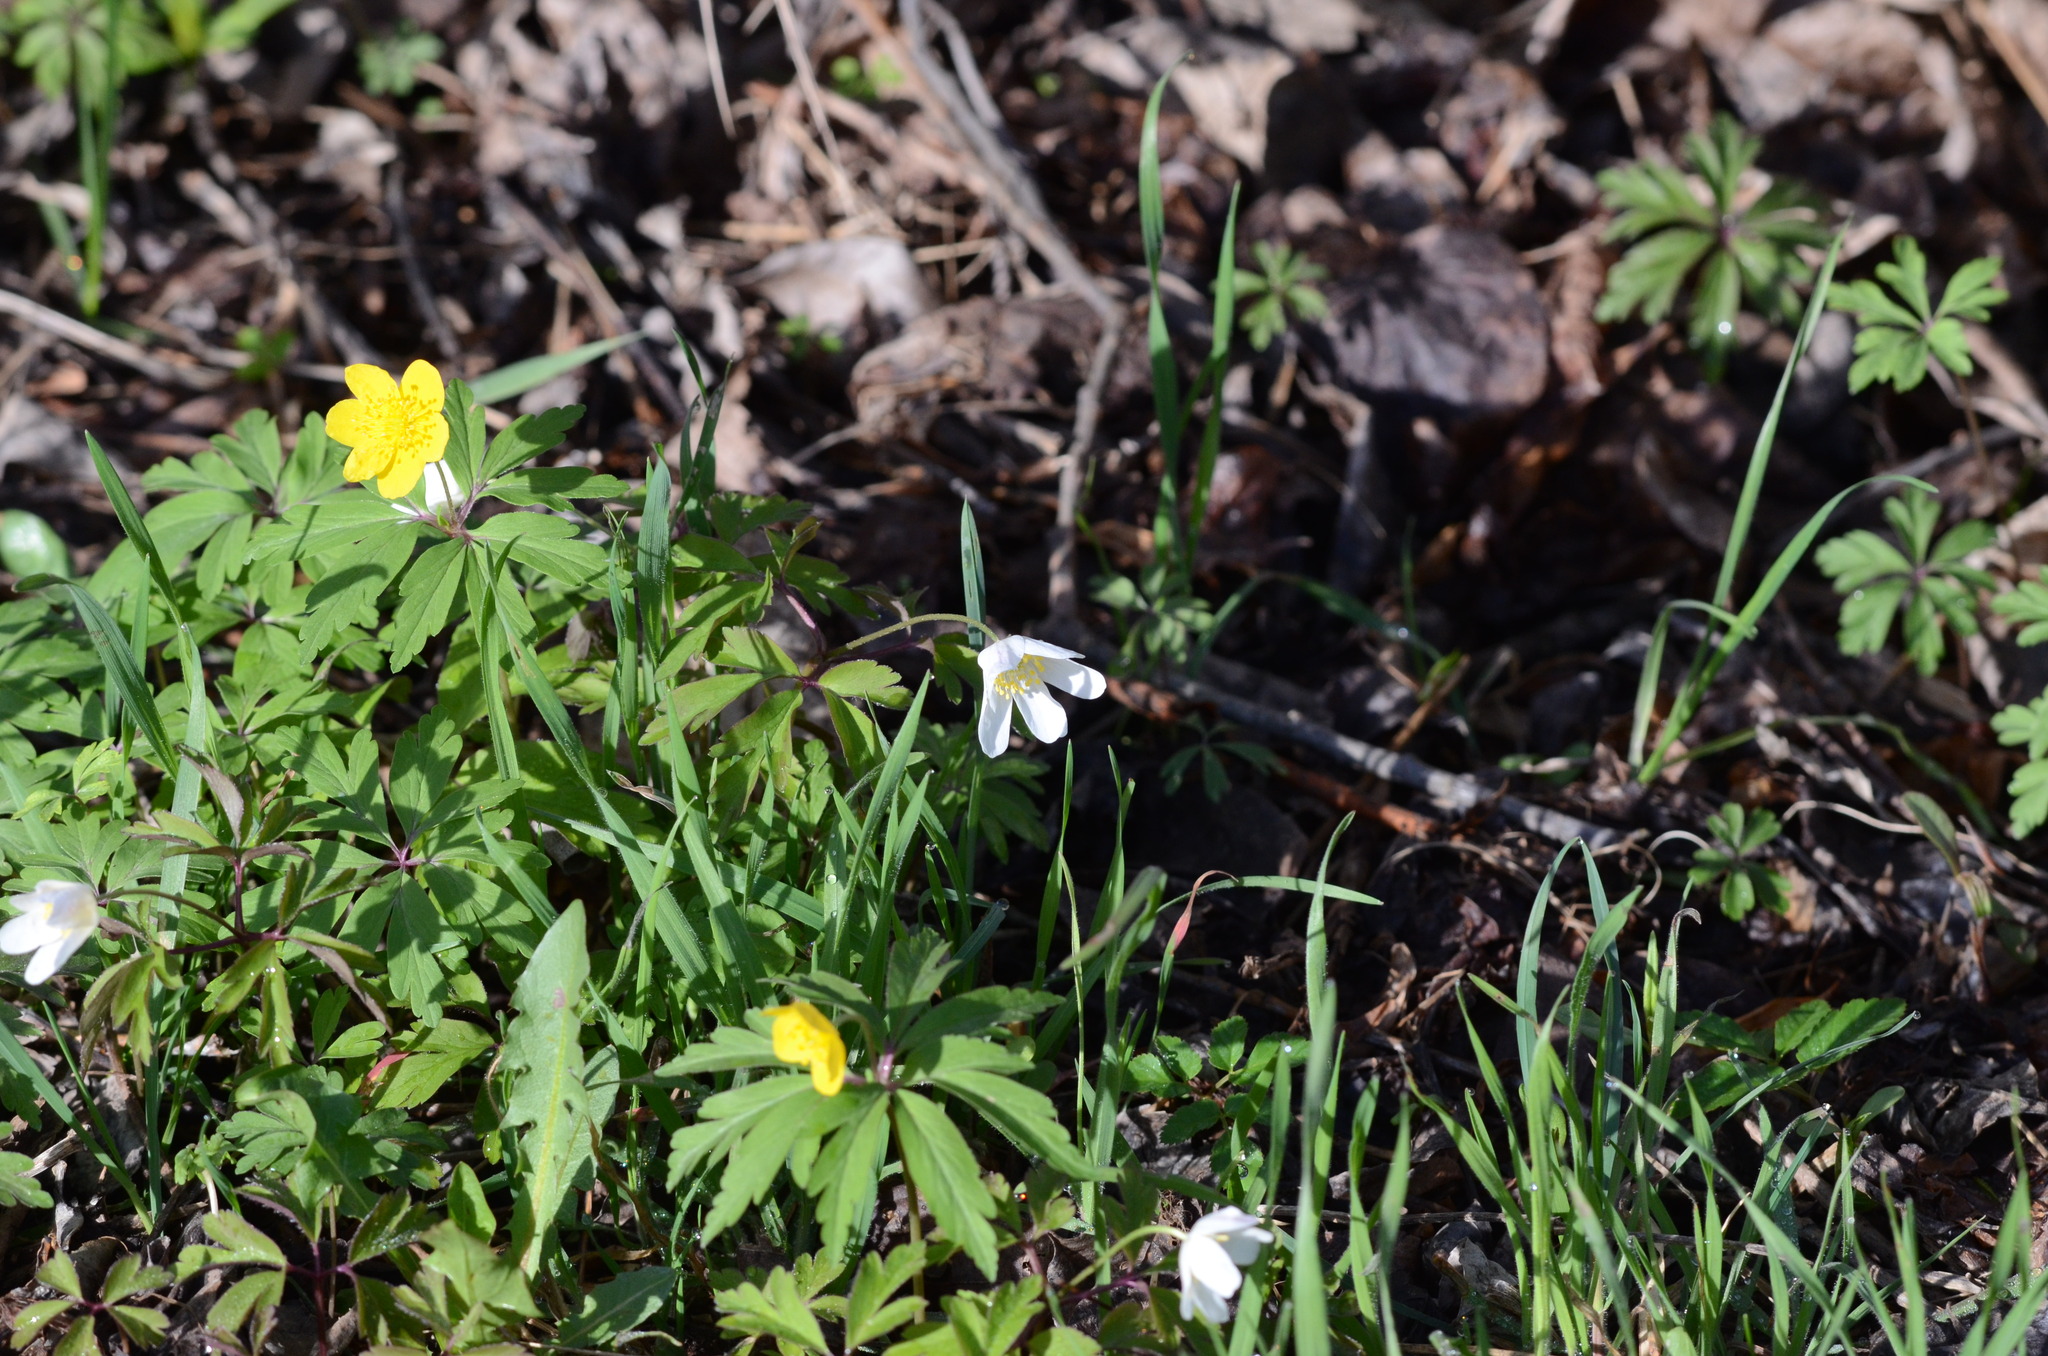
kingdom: Plantae
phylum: Tracheophyta
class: Magnoliopsida
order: Ranunculales
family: Ranunculaceae
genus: Anemone
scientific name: Anemone ranunculoides
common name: Yellow anemone
